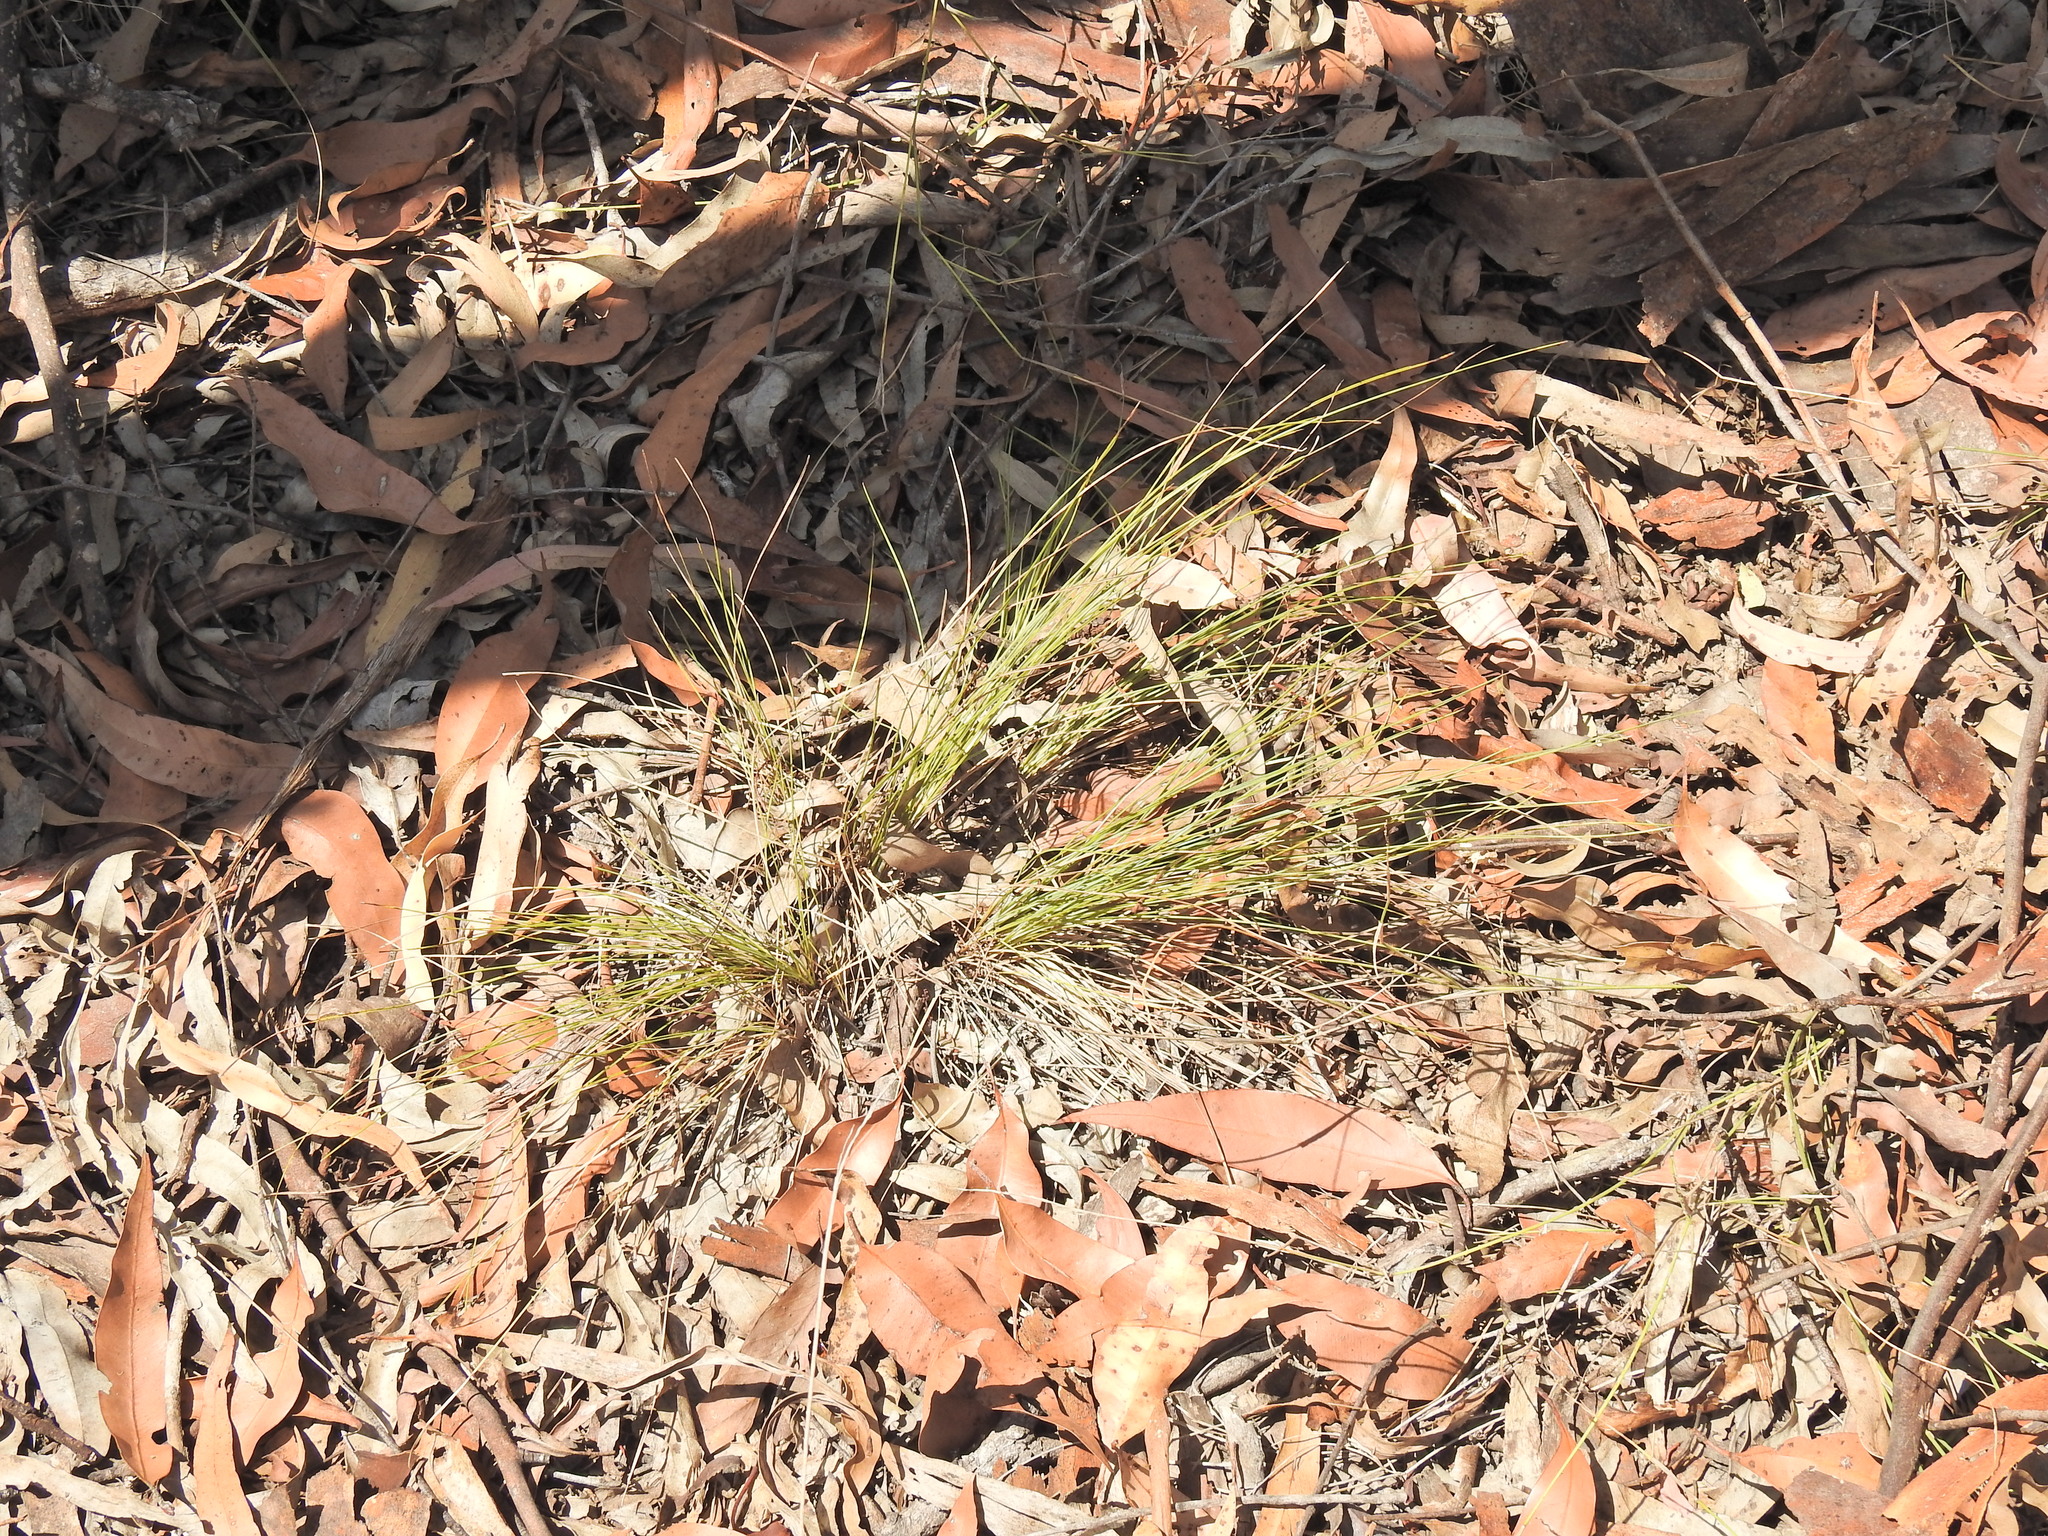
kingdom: Plantae
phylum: Tracheophyta
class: Liliopsida
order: Asparagales
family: Asparagaceae
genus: Lomandra
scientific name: Lomandra filiformis
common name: Wattle mat-rush
